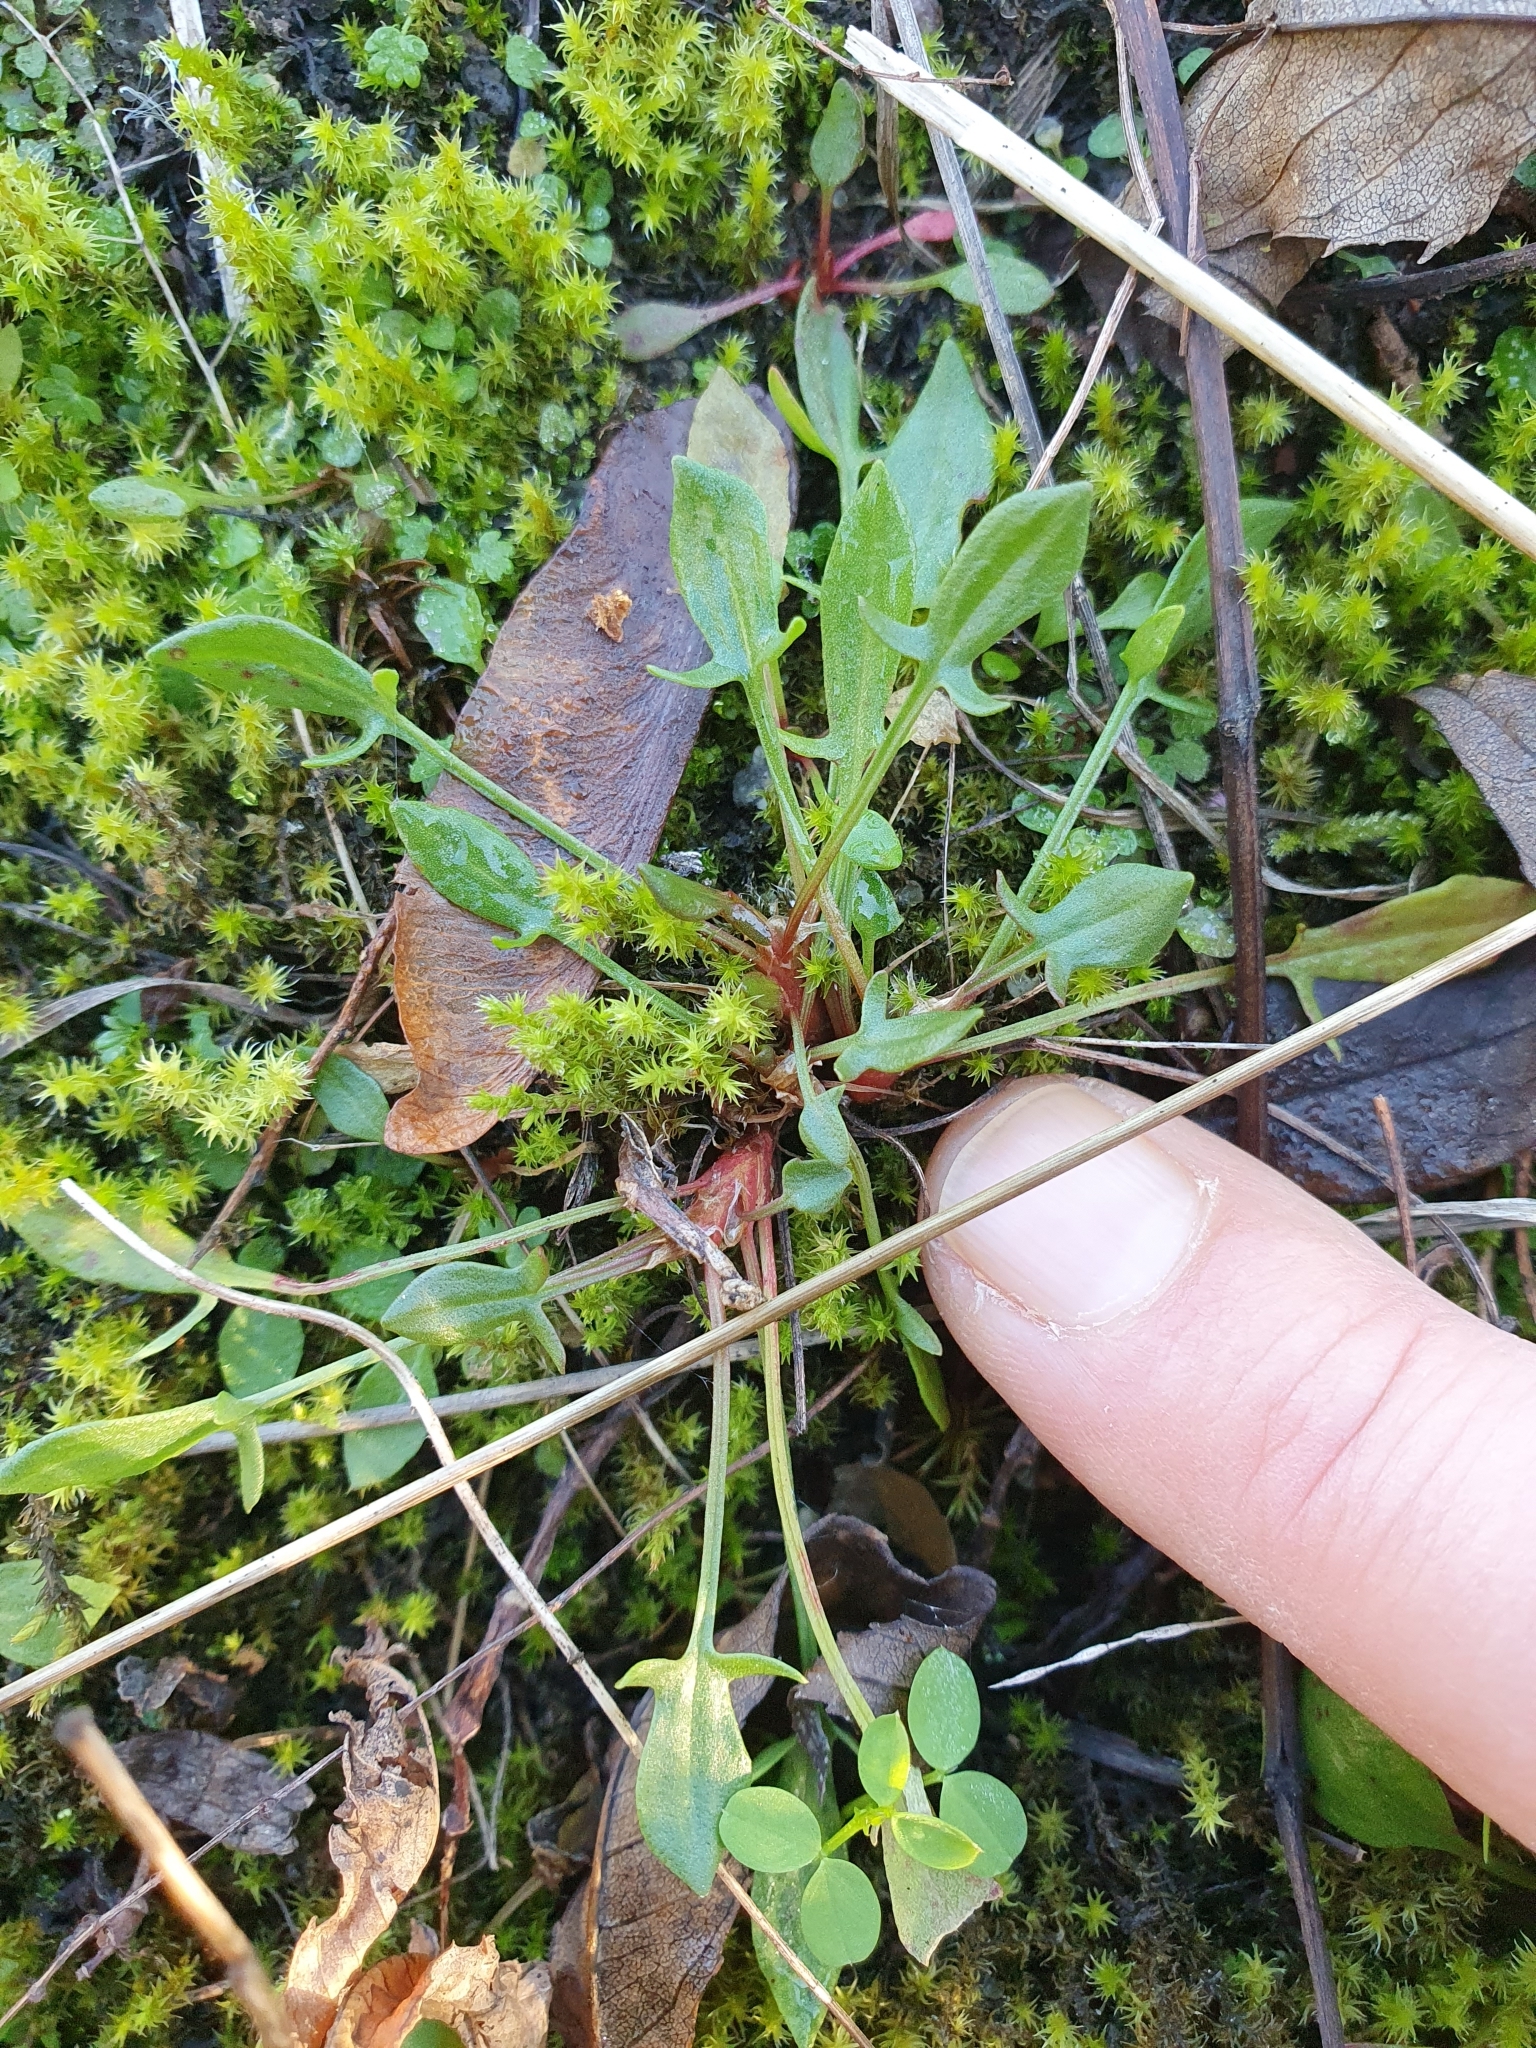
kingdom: Plantae
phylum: Tracheophyta
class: Magnoliopsida
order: Caryophyllales
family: Polygonaceae
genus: Rumex
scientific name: Rumex acetosella
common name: Common sheep sorrel
